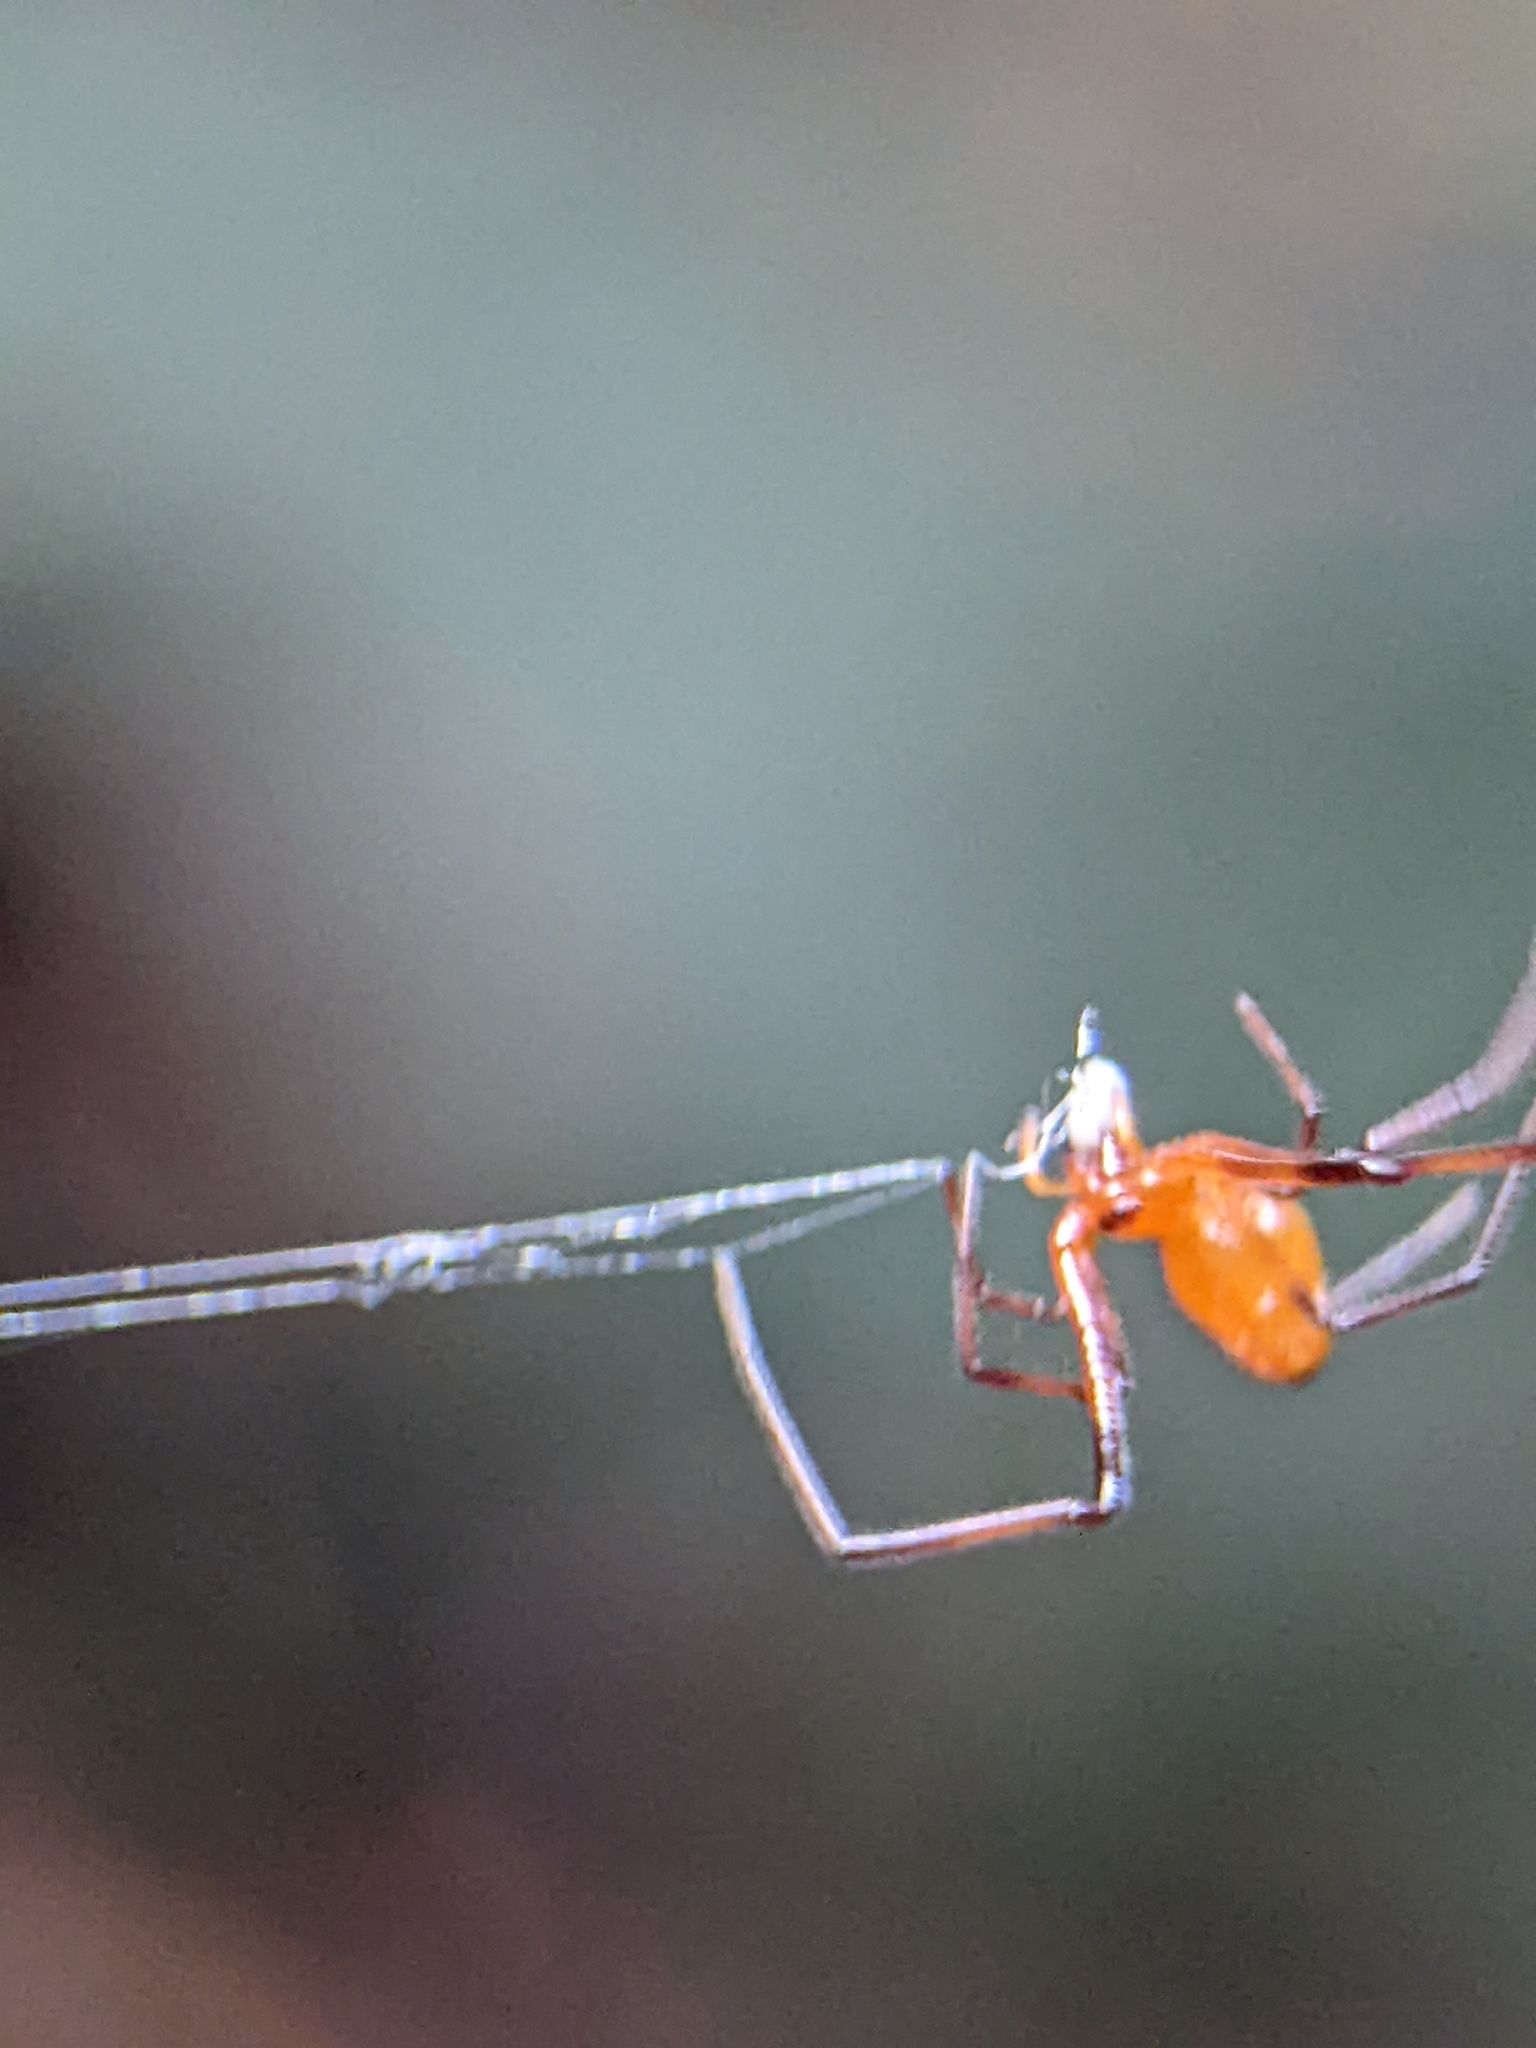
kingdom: Animalia
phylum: Arthropoda
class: Arachnida
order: Araneae
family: Theridiidae
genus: Argyrodes
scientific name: Argyrodes flavescens
